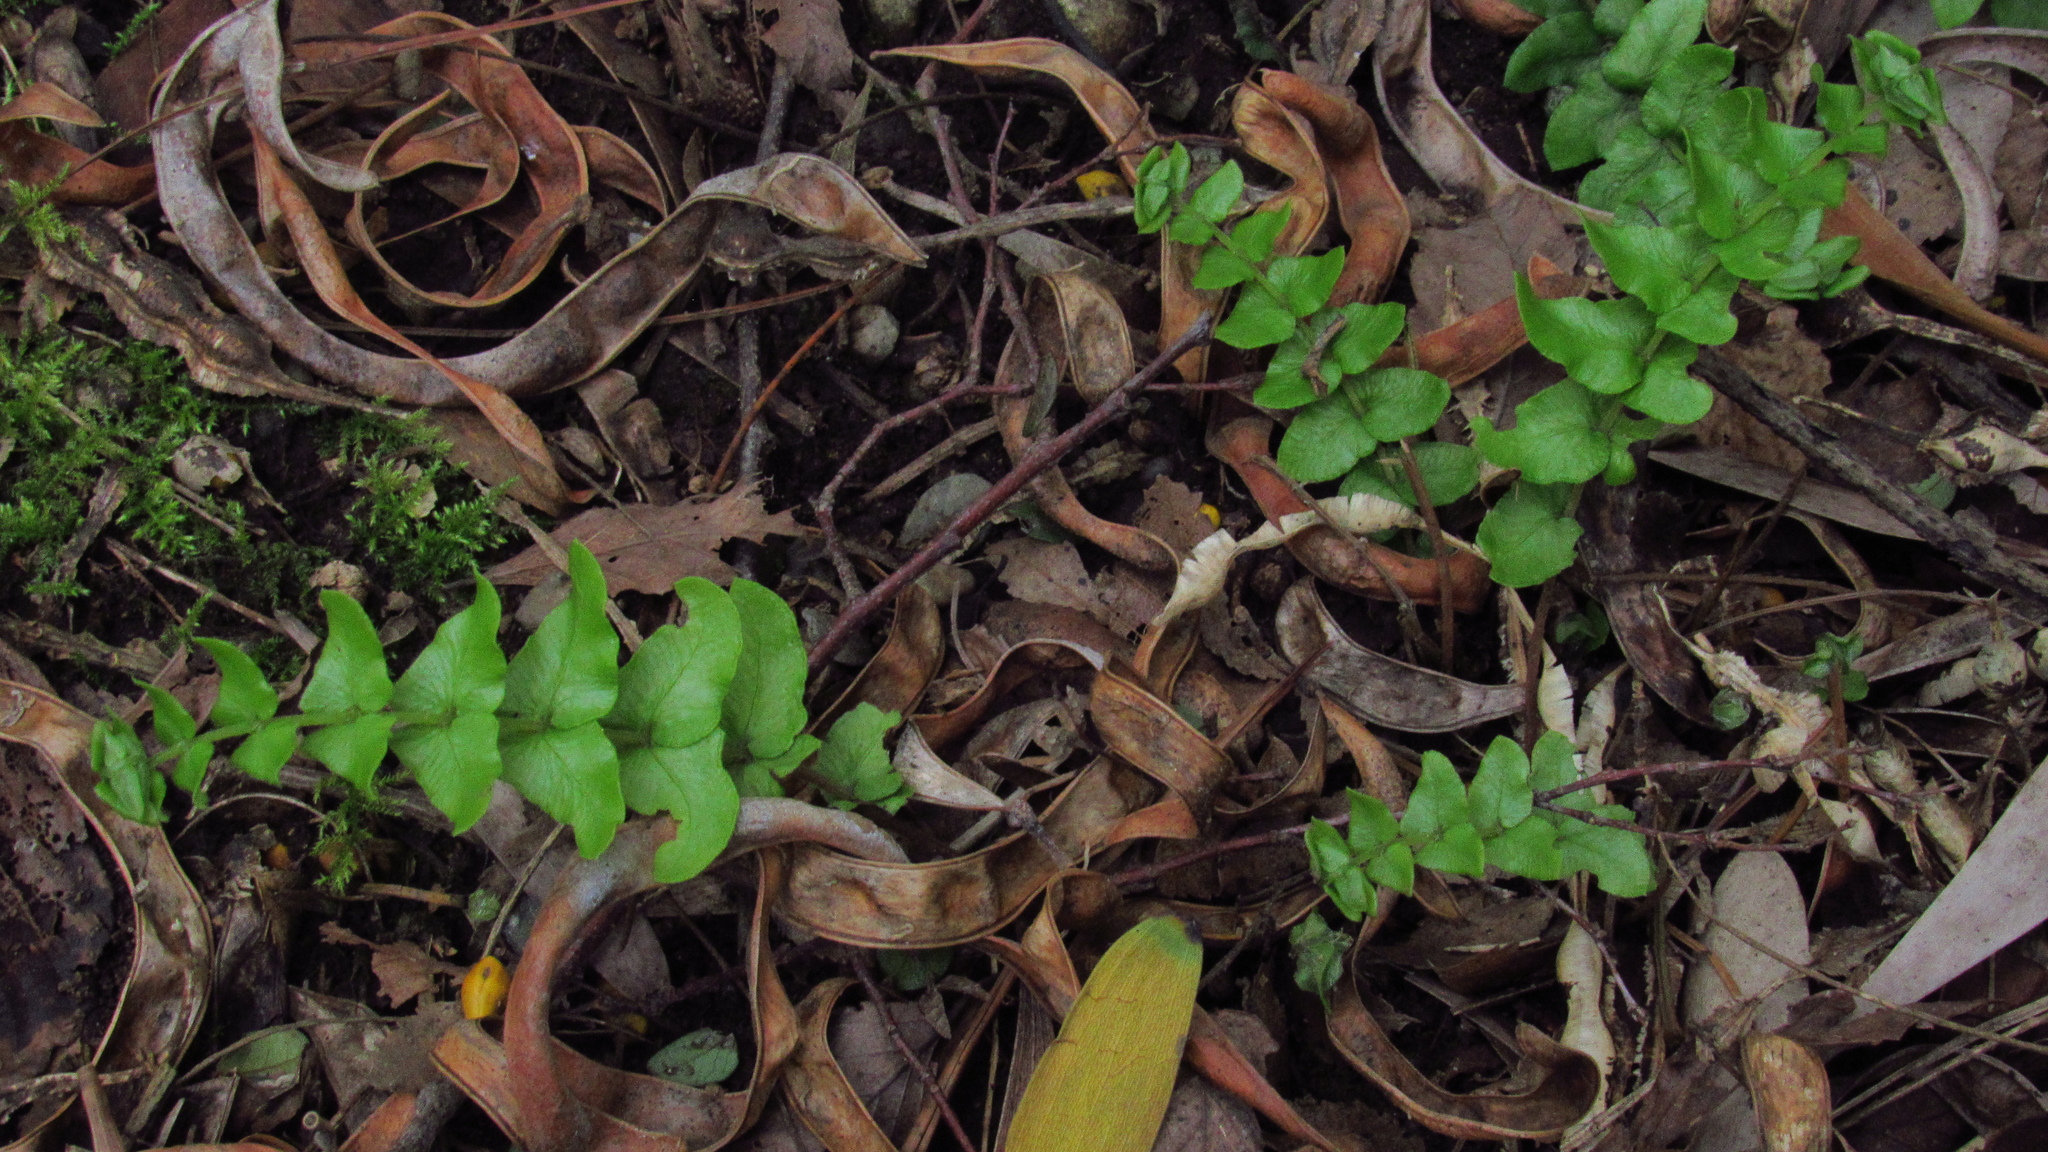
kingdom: Plantae
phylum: Tracheophyta
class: Polypodiopsida
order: Polypodiales
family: Blechnaceae
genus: Blechnum
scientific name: Blechnum hastatum
